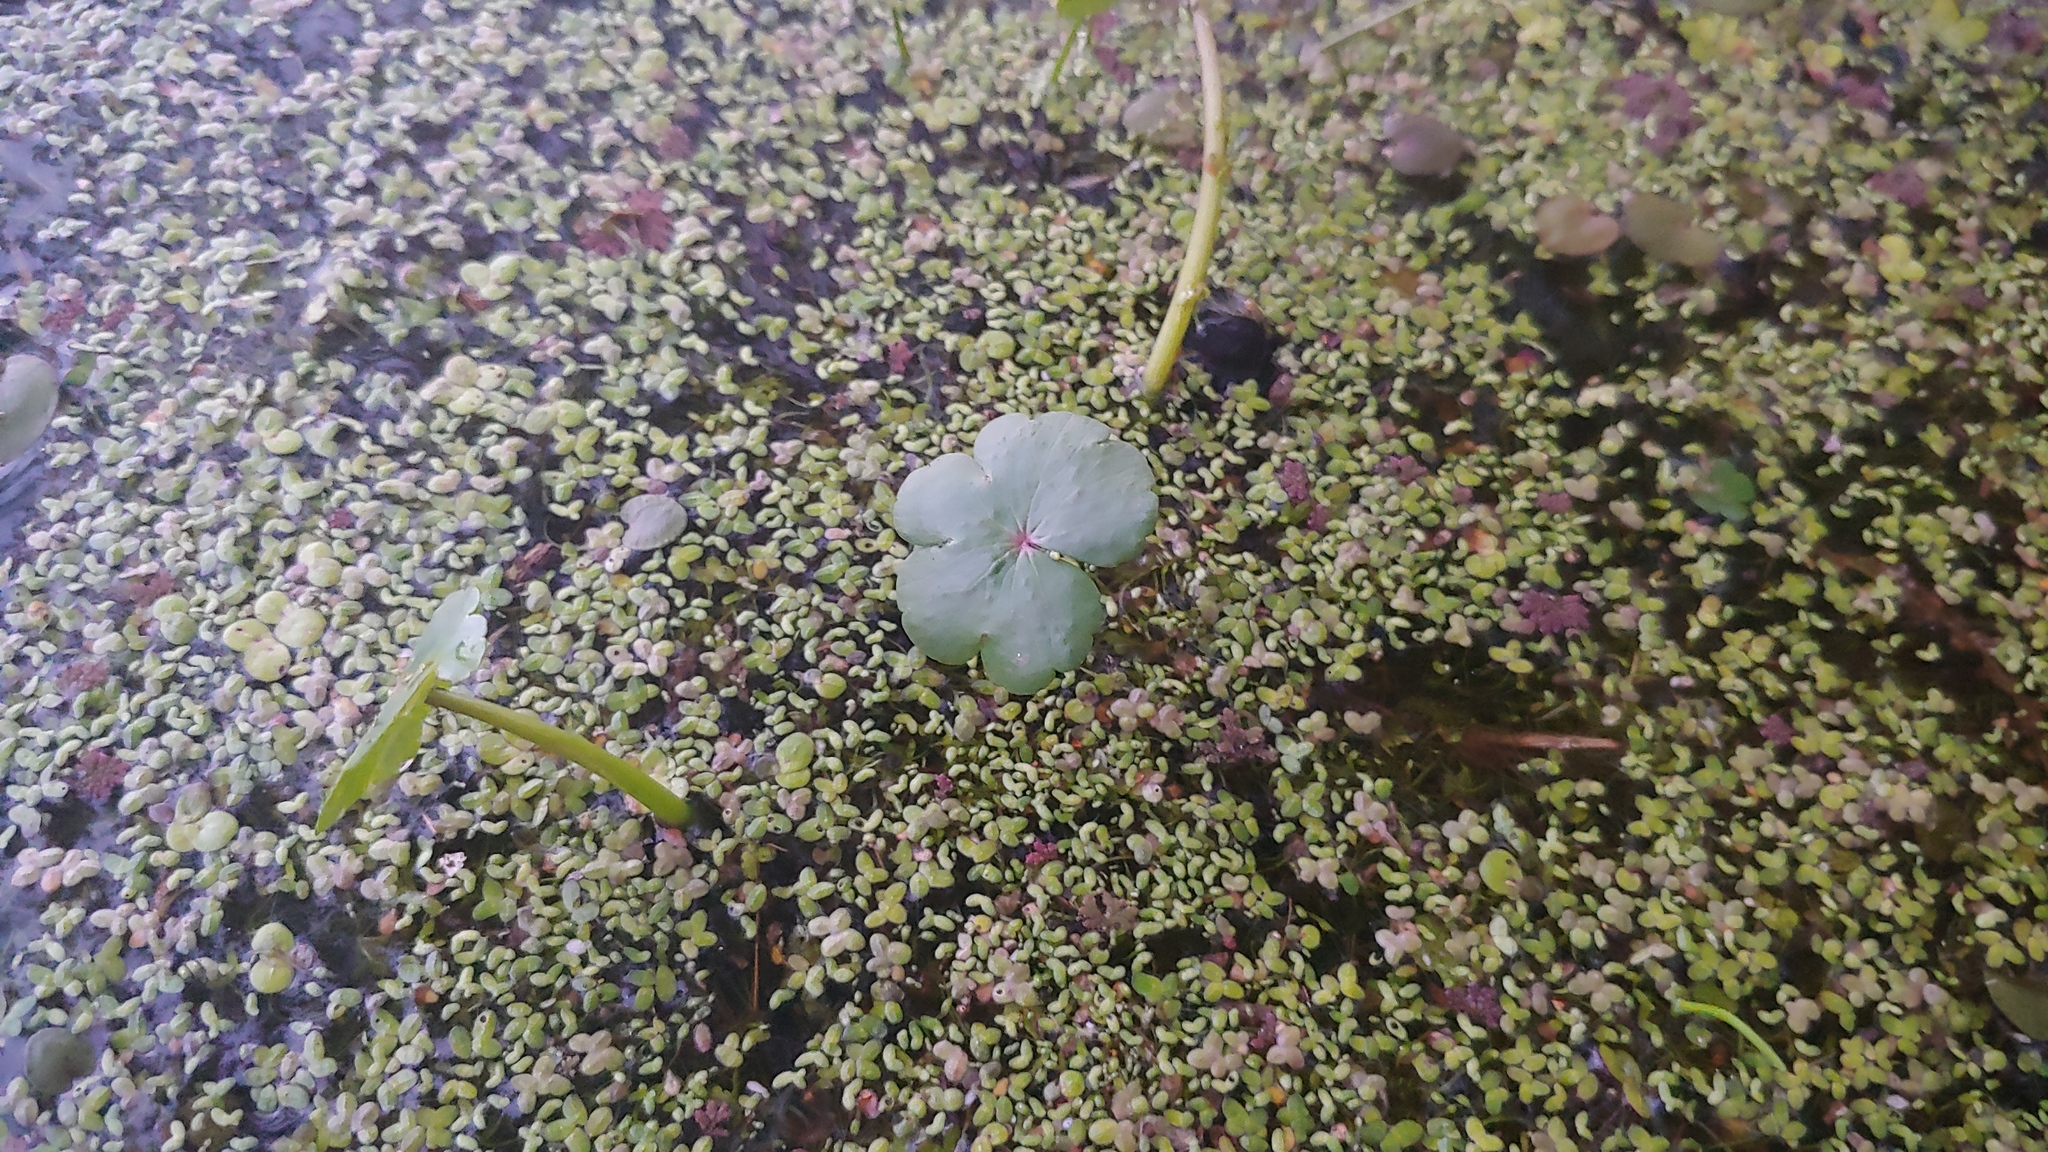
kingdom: Plantae
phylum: Tracheophyta
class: Magnoliopsida
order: Apiales
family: Araliaceae
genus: Hydrocotyle
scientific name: Hydrocotyle ranunculoides
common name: Floating pennywort
